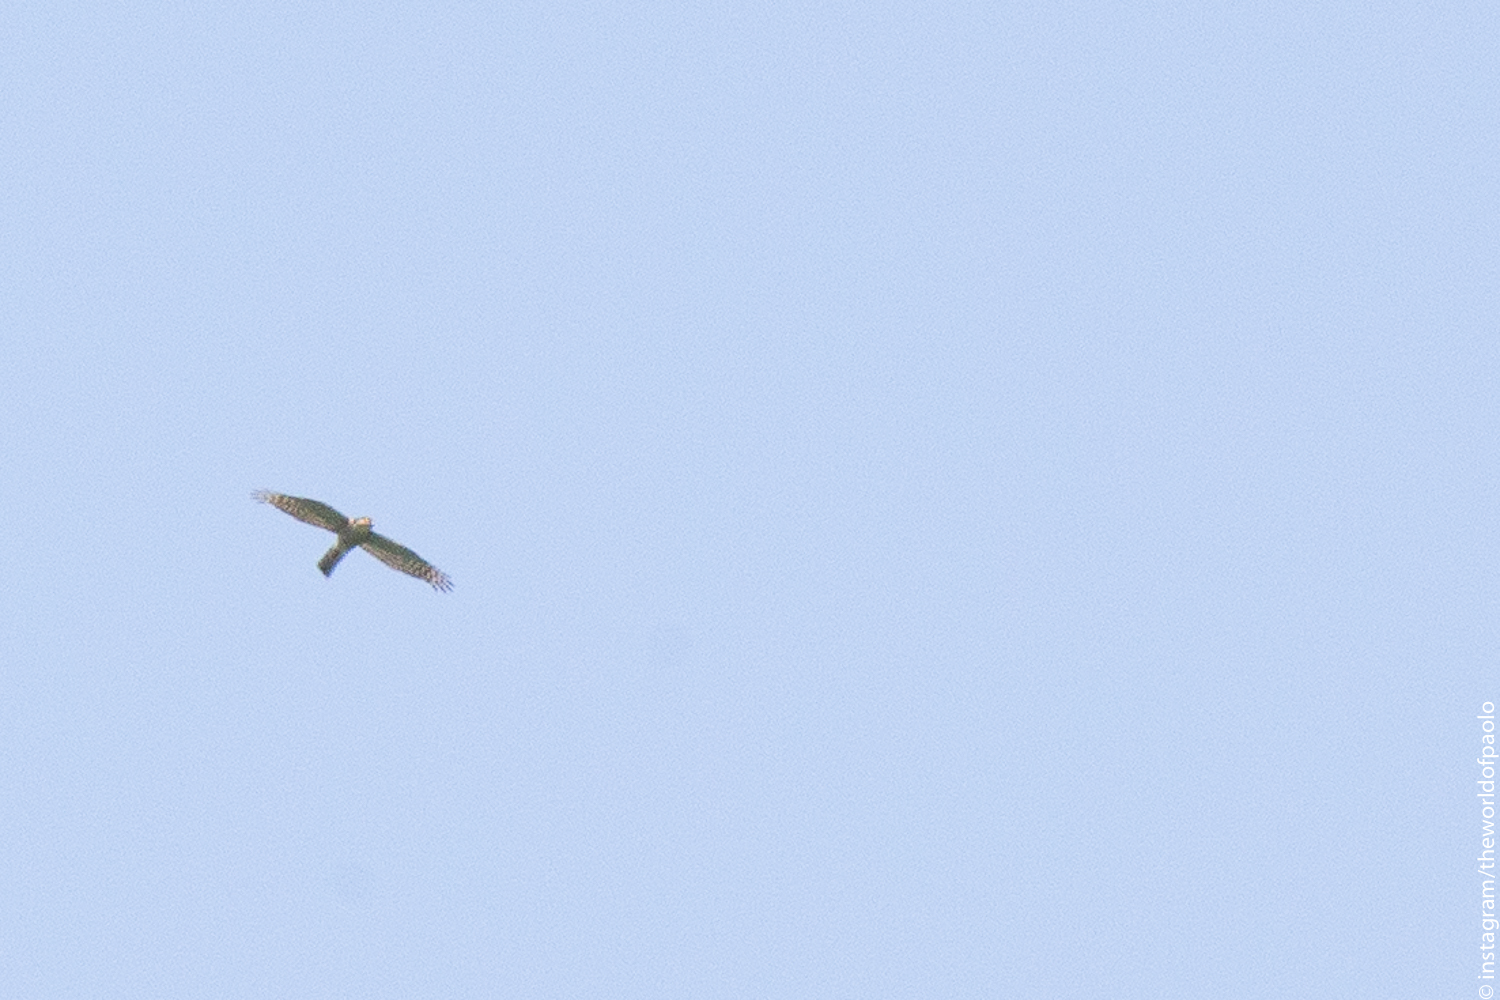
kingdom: Animalia
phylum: Chordata
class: Aves
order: Accipitriformes
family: Accipitridae
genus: Accipiter
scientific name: Accipiter nisus
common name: Eurasian sparrowhawk
